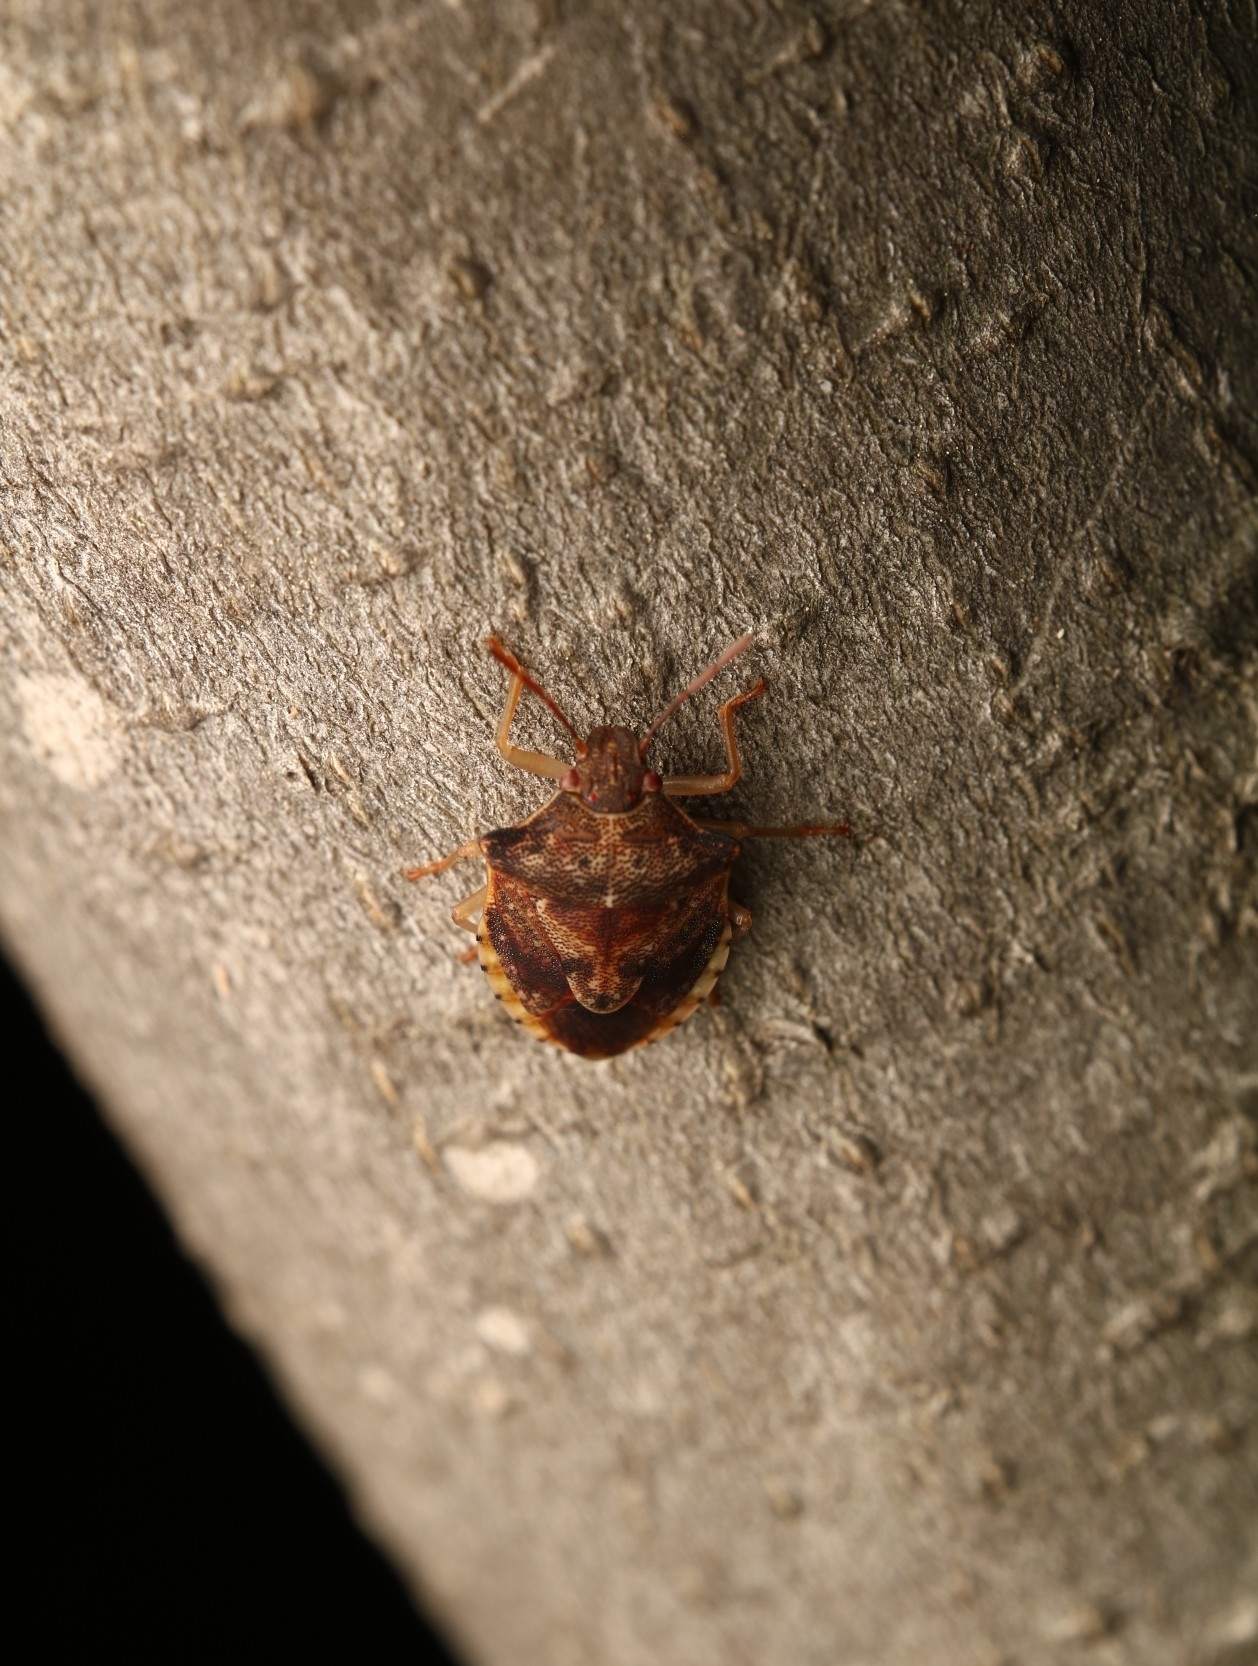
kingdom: Animalia
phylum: Arthropoda
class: Insecta
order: Hemiptera
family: Pentatomidae
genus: Dendrocoris
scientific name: Dendrocoris humeralis
